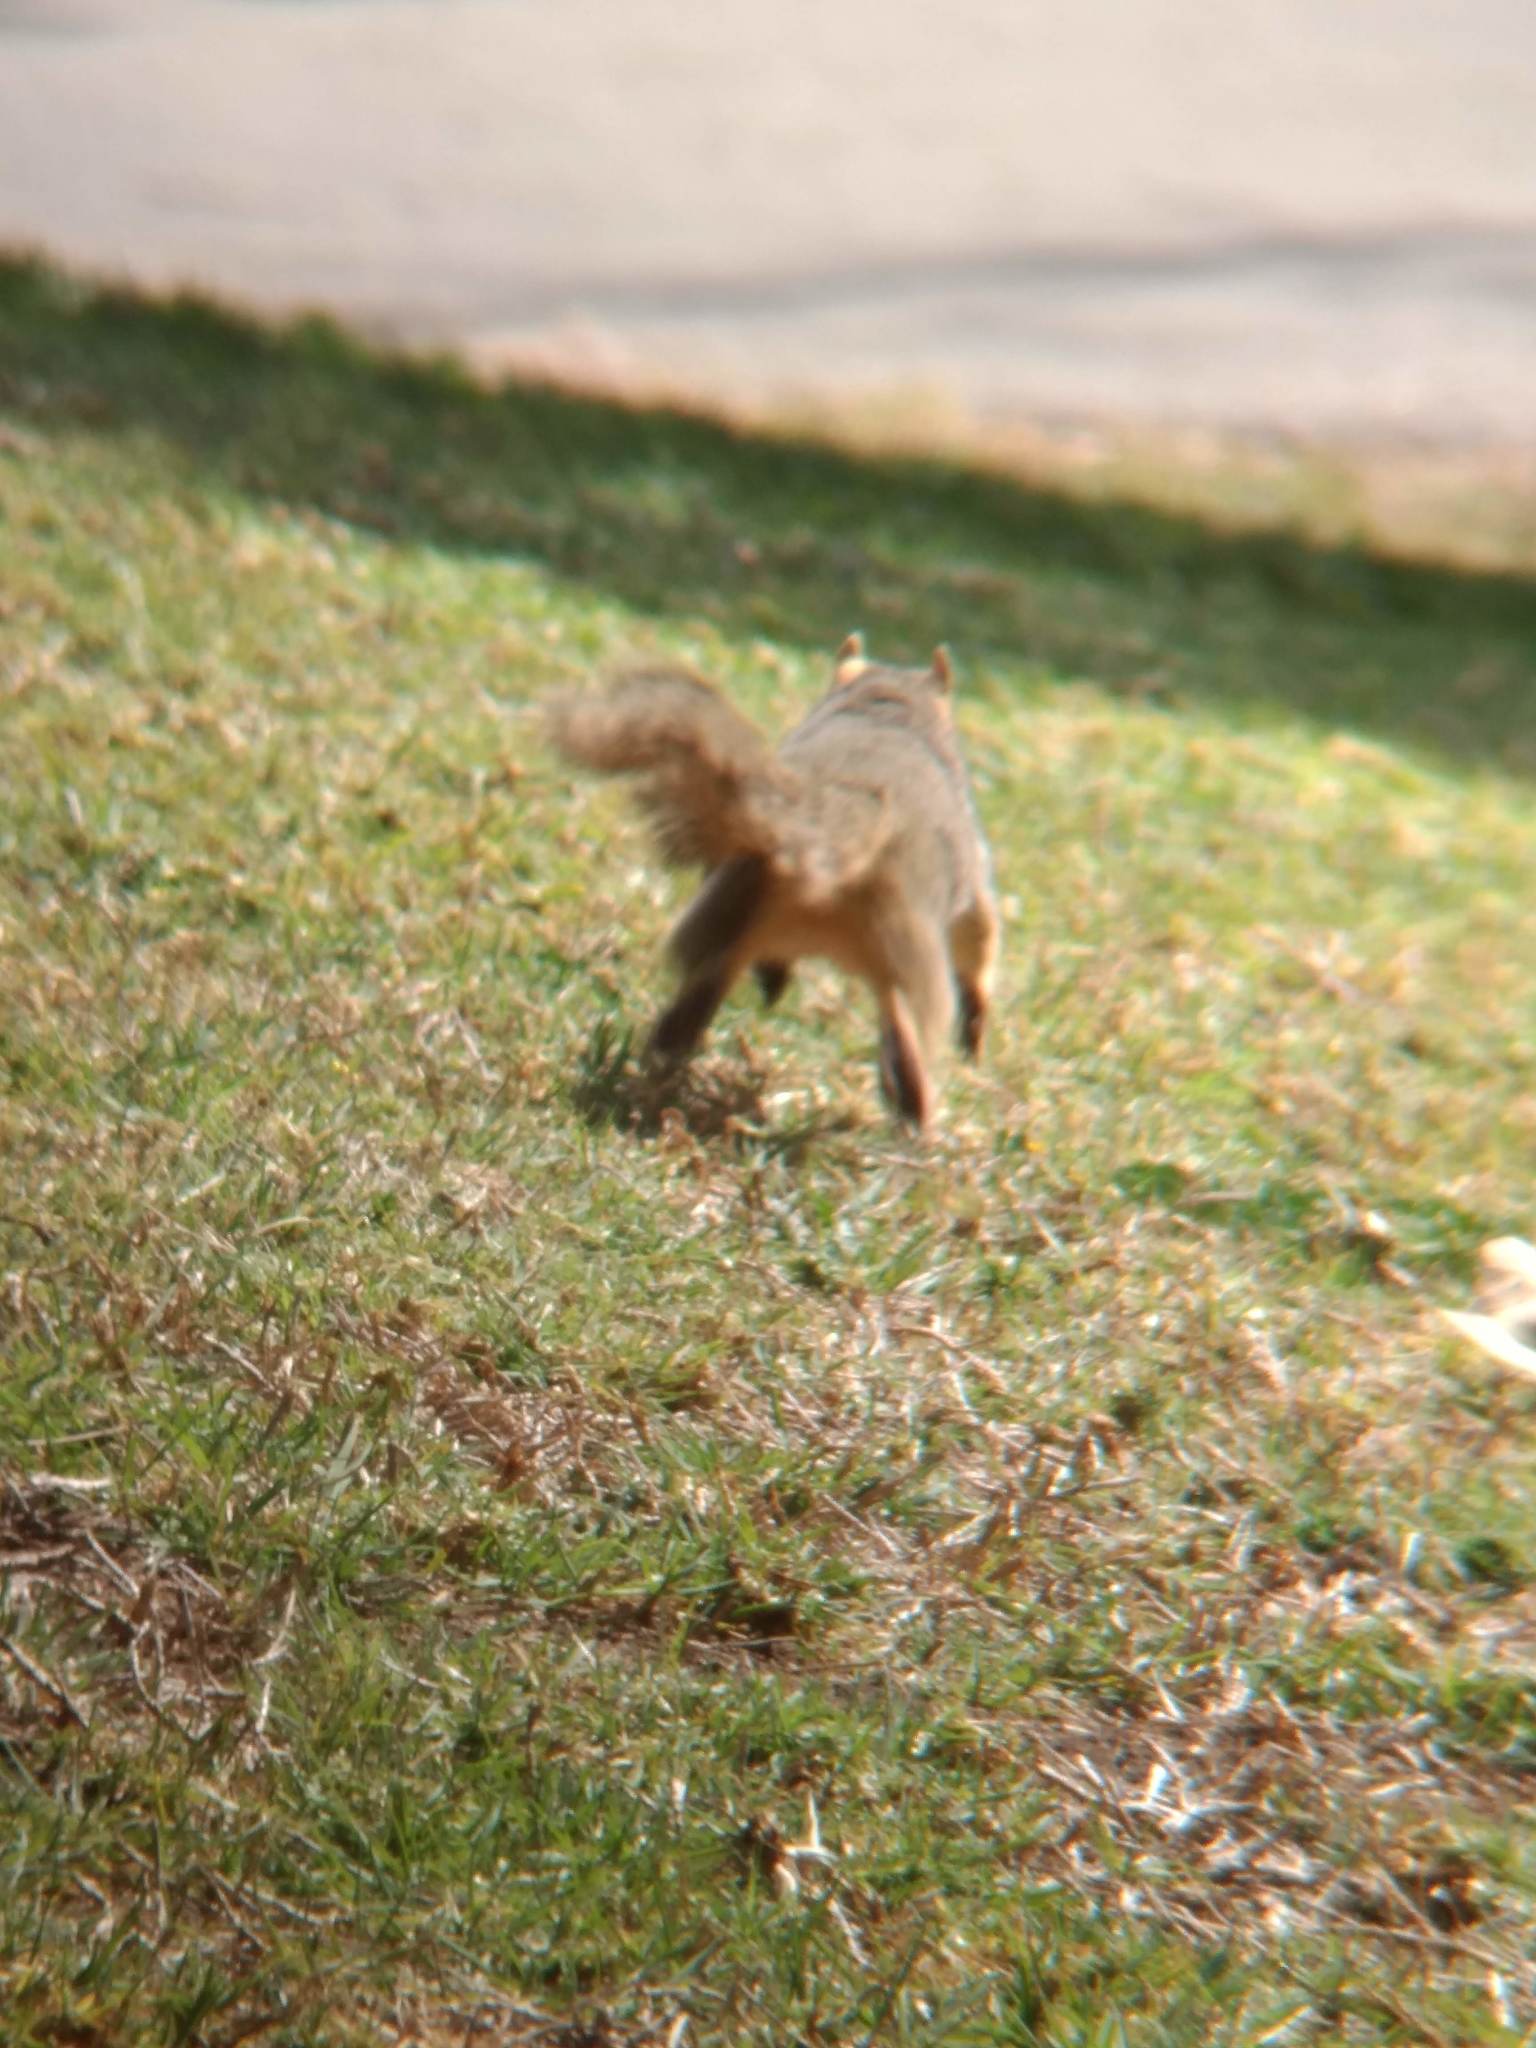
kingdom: Animalia
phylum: Chordata
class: Mammalia
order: Rodentia
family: Sciuridae
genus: Sciurus
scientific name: Sciurus niger
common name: Fox squirrel
